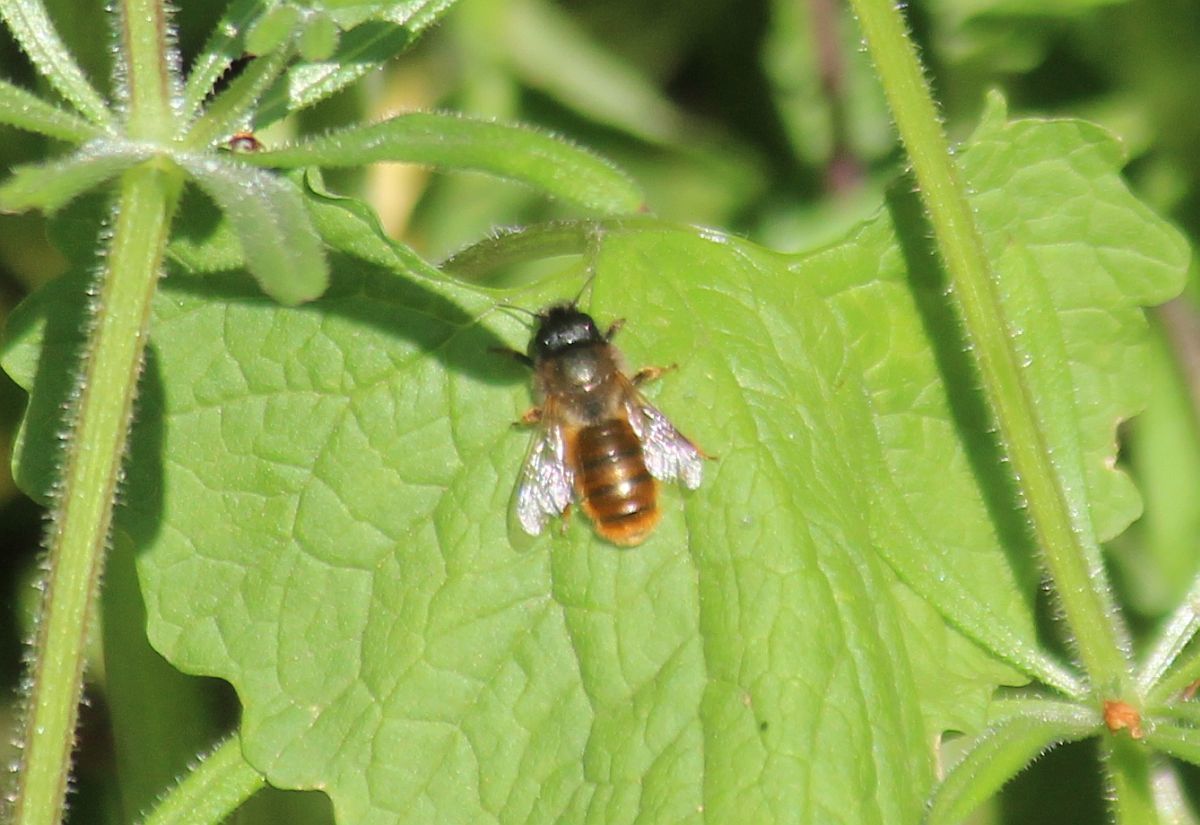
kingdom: Animalia
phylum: Arthropoda
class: Insecta
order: Hymenoptera
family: Megachilidae
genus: Osmia
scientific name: Osmia bicornis
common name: Red mason bee
